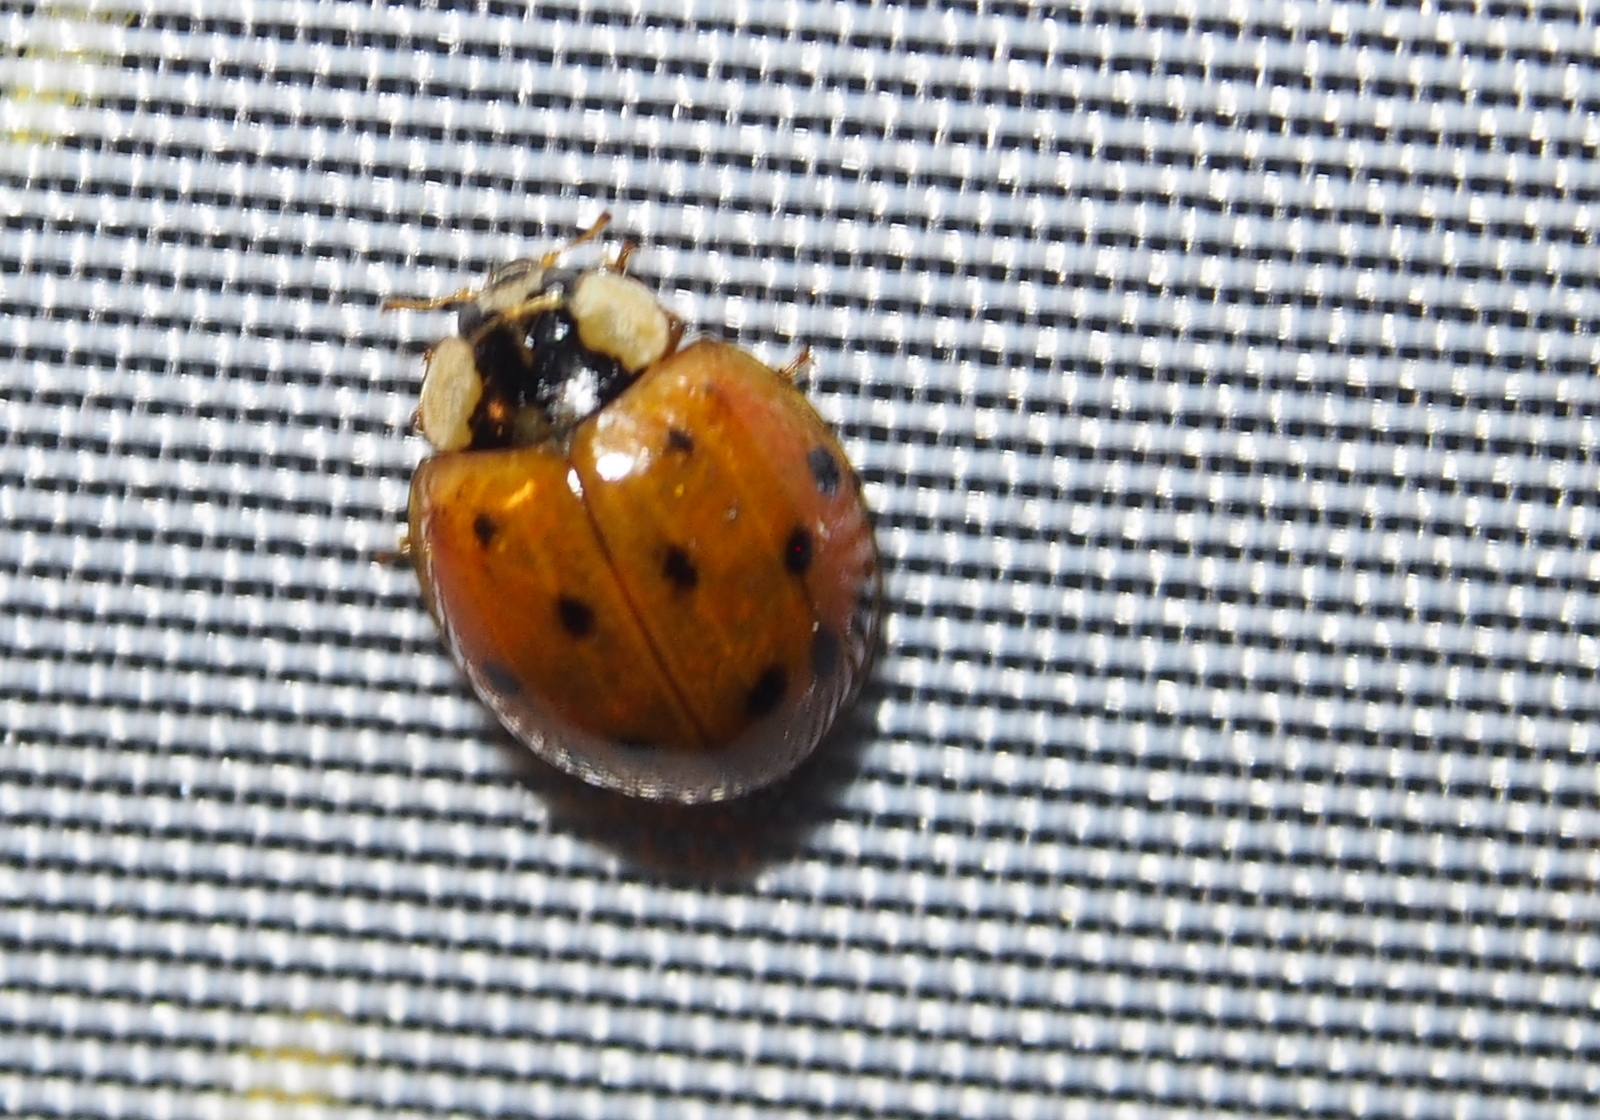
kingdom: Animalia
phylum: Arthropoda
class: Insecta
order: Coleoptera
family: Coccinellidae
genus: Harmonia
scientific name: Harmonia axyridis
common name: Harlequin ladybird
